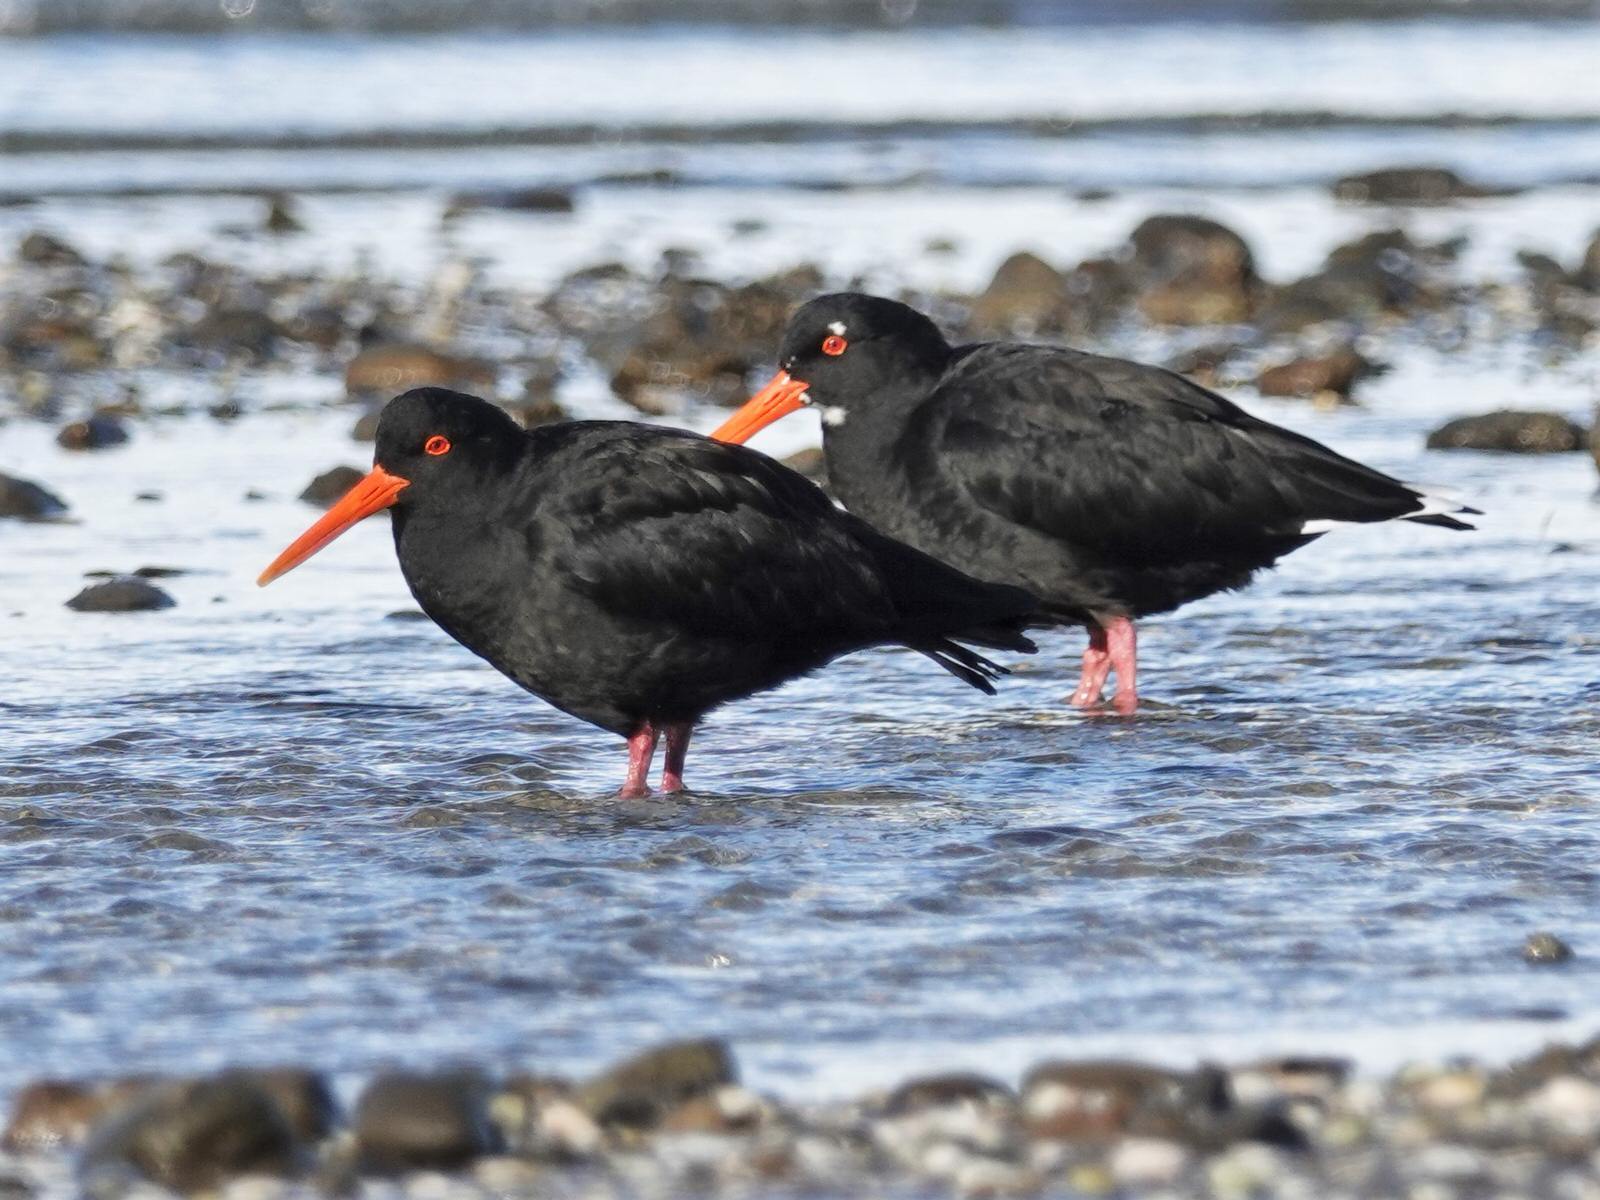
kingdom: Animalia
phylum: Chordata
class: Aves
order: Charadriiformes
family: Haematopodidae
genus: Haematopus
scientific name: Haematopus unicolor
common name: Variable oystercatcher
